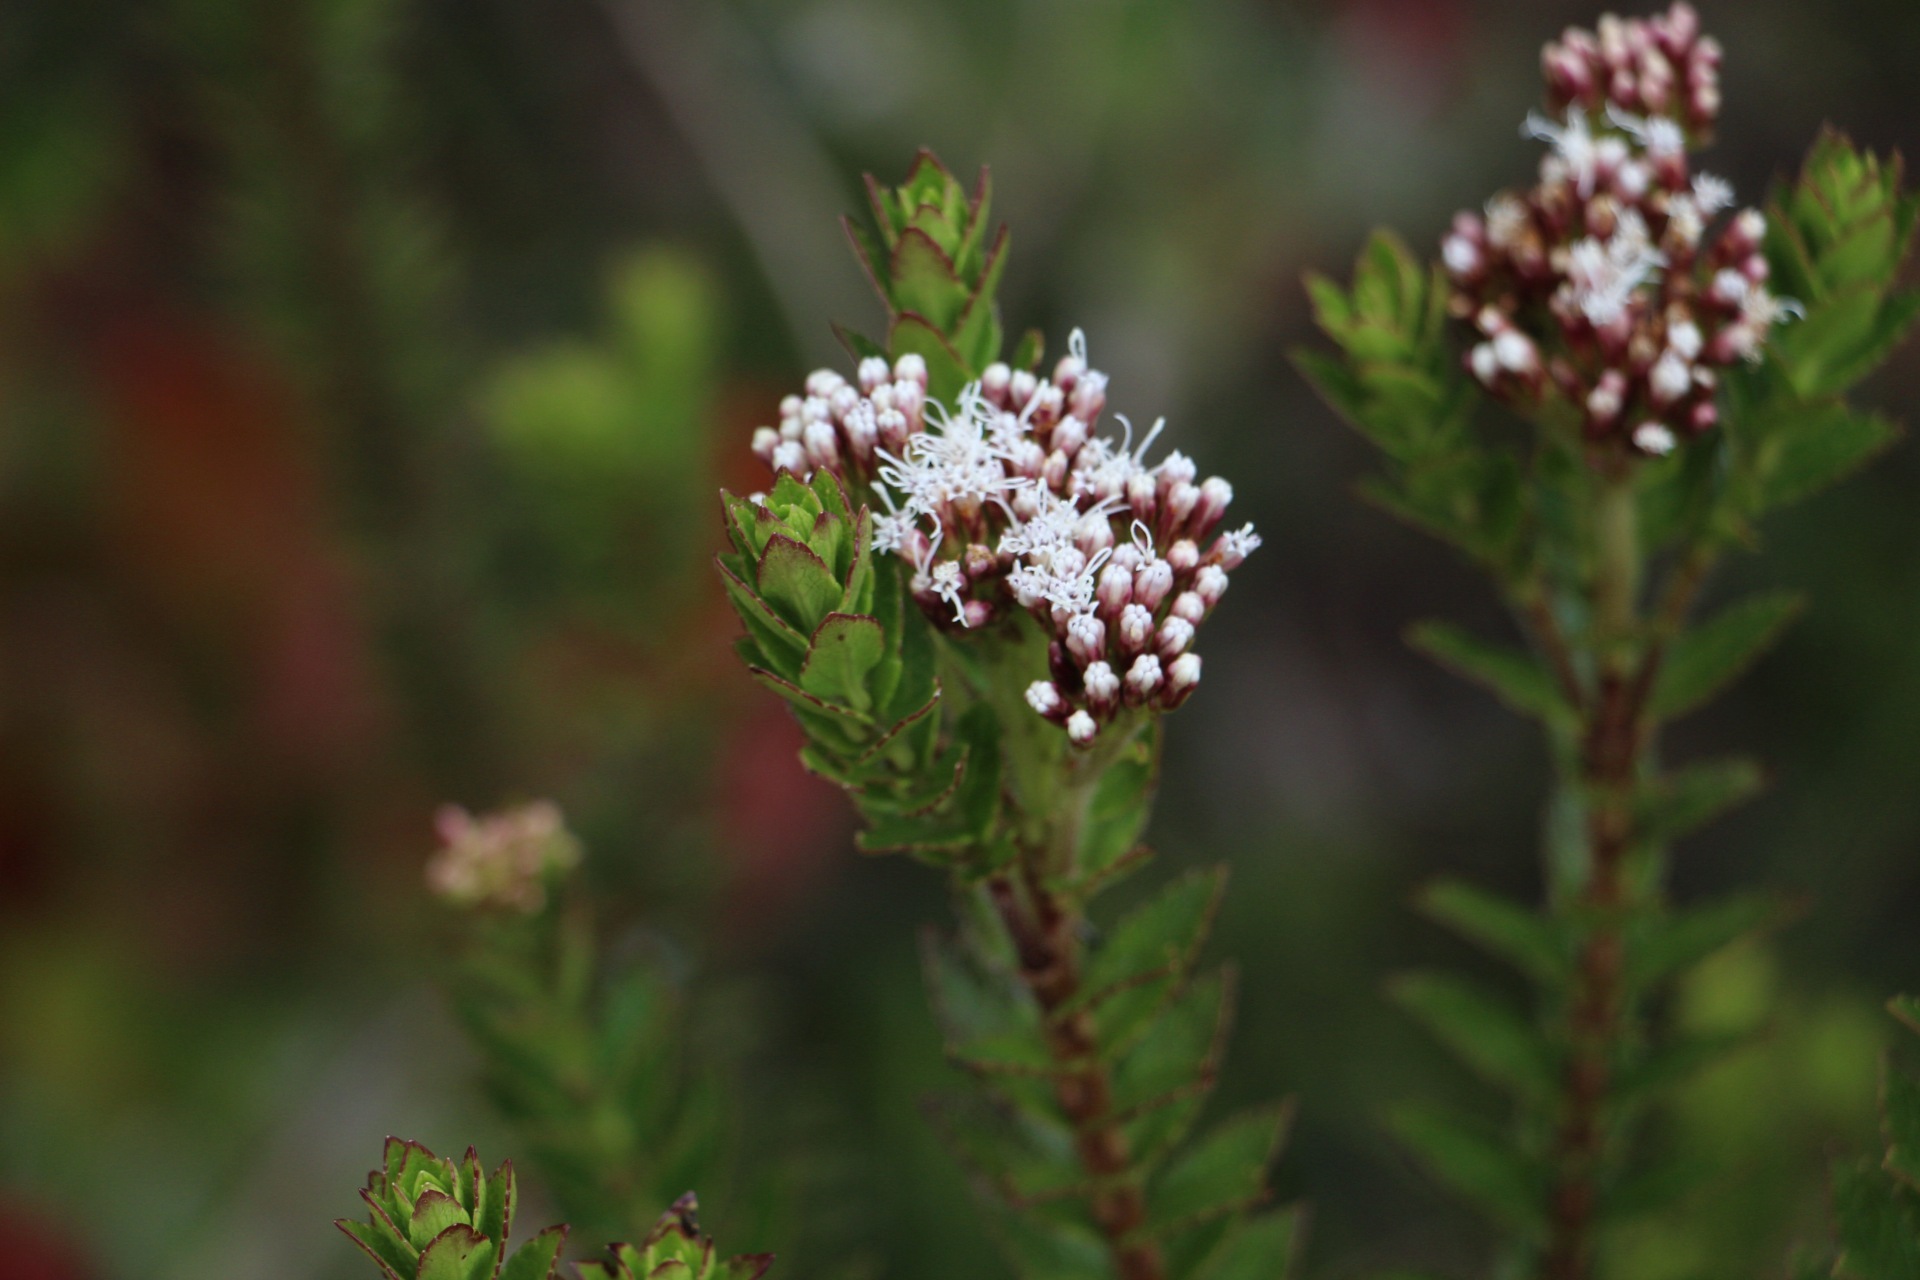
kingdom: Plantae
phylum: Tracheophyta
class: Magnoliopsida
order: Asterales
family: Asteraceae
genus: Ageratina
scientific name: Ageratina vacciniifolia
